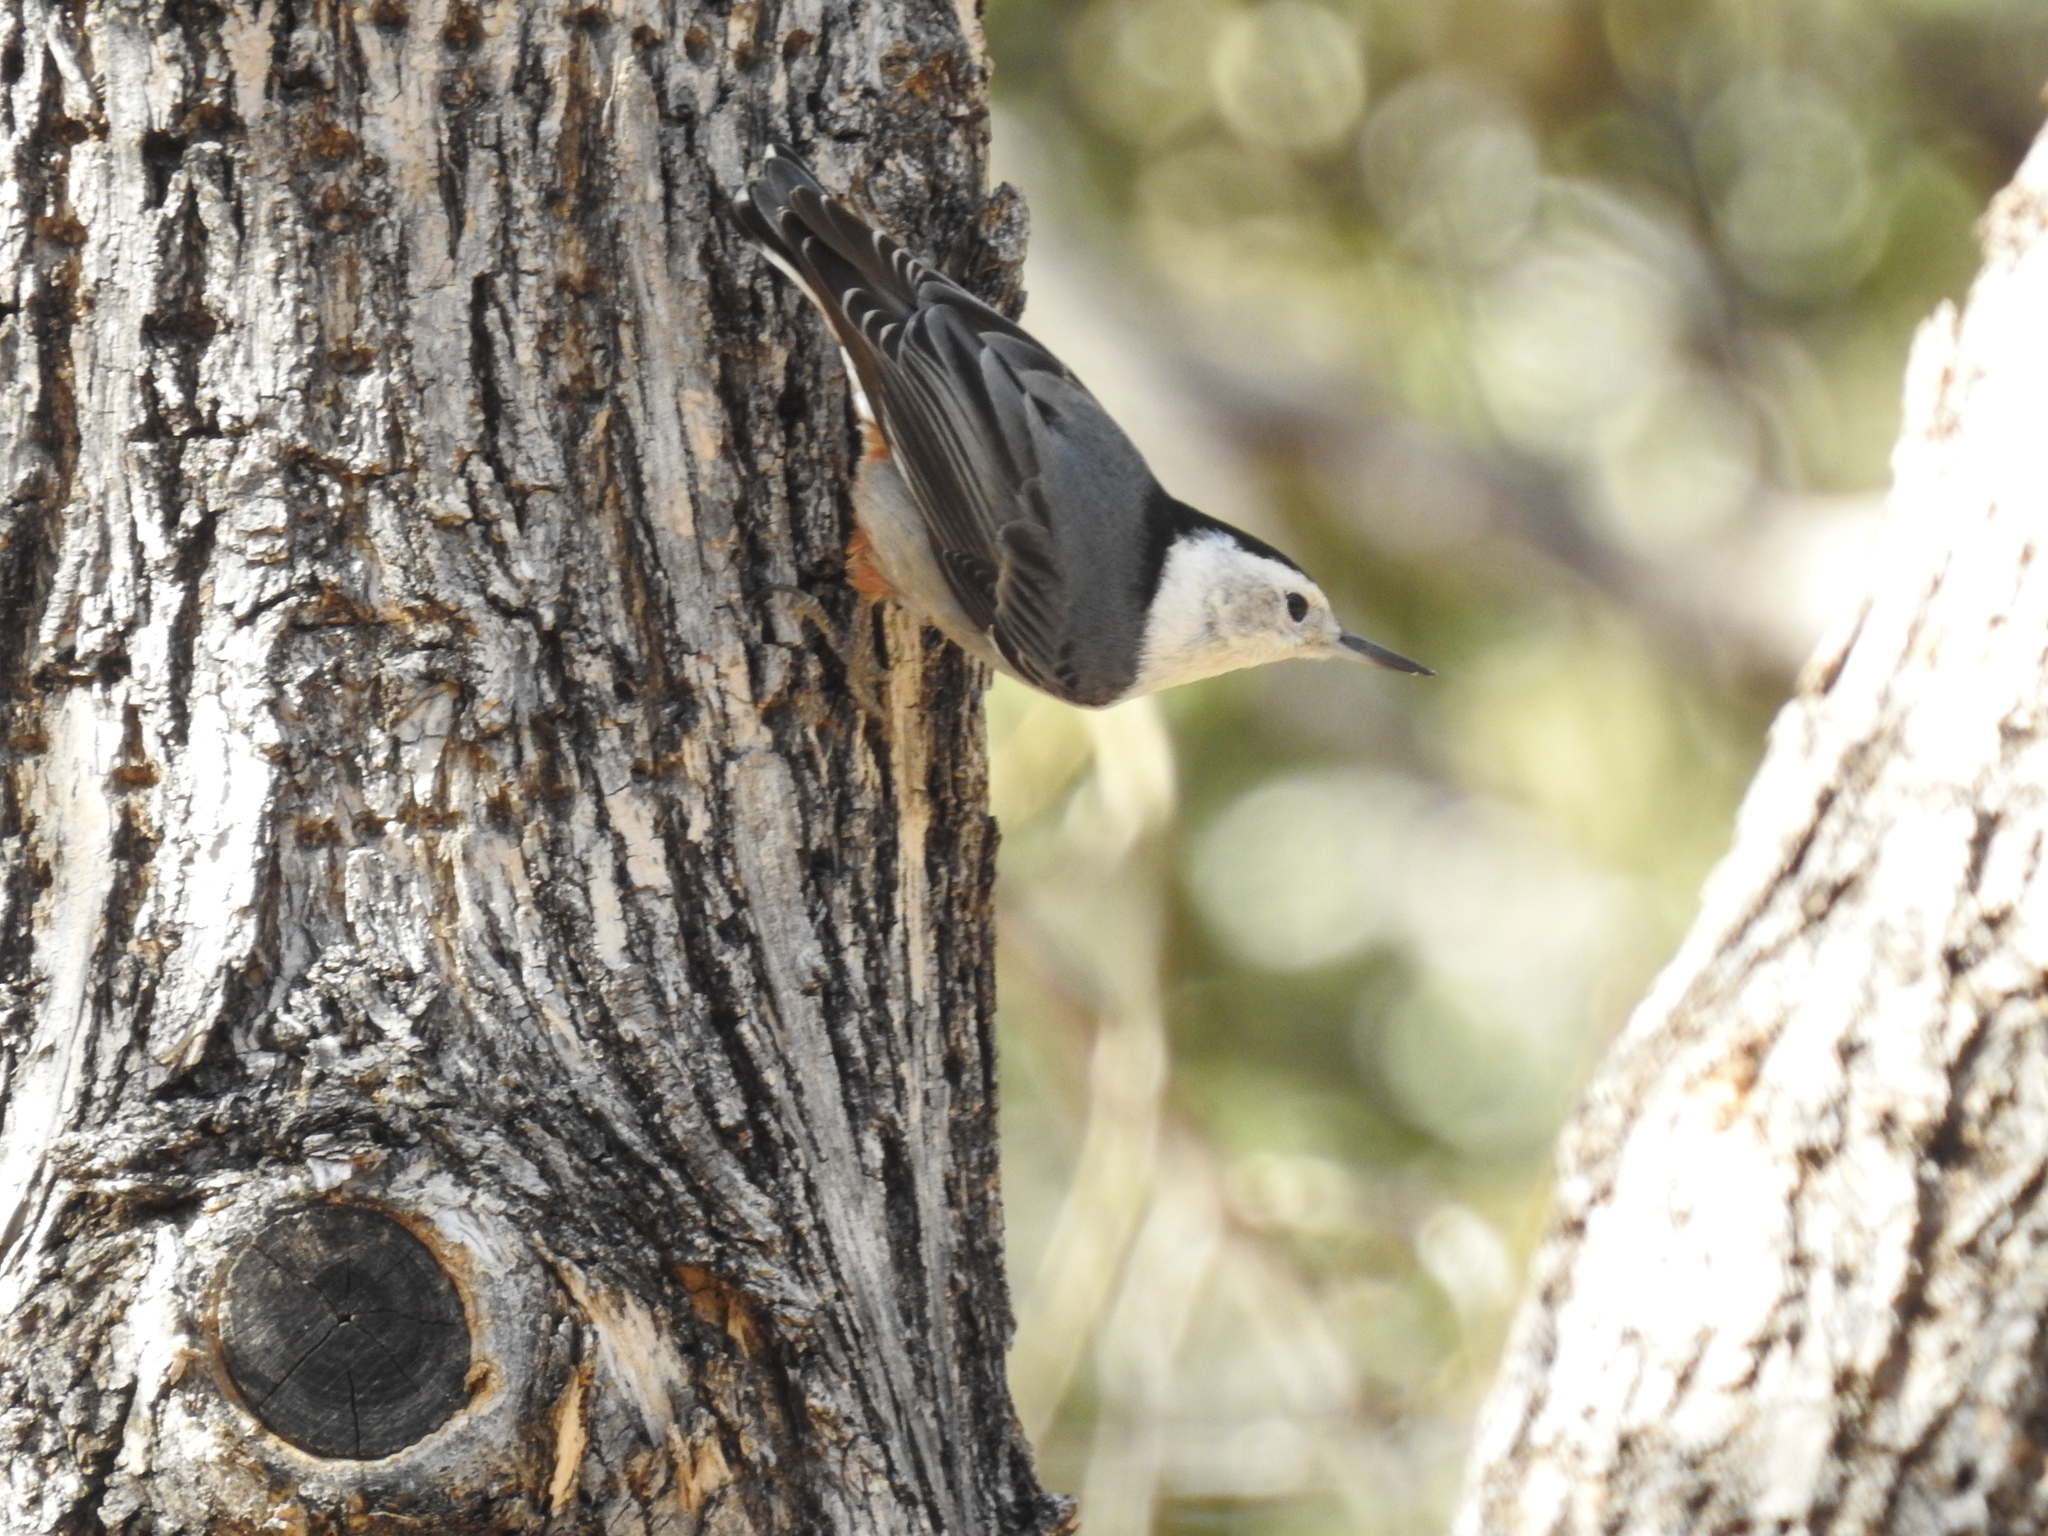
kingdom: Animalia
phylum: Chordata
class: Aves
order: Passeriformes
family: Sittidae
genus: Sitta
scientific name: Sitta carolinensis
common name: White-breasted nuthatch
